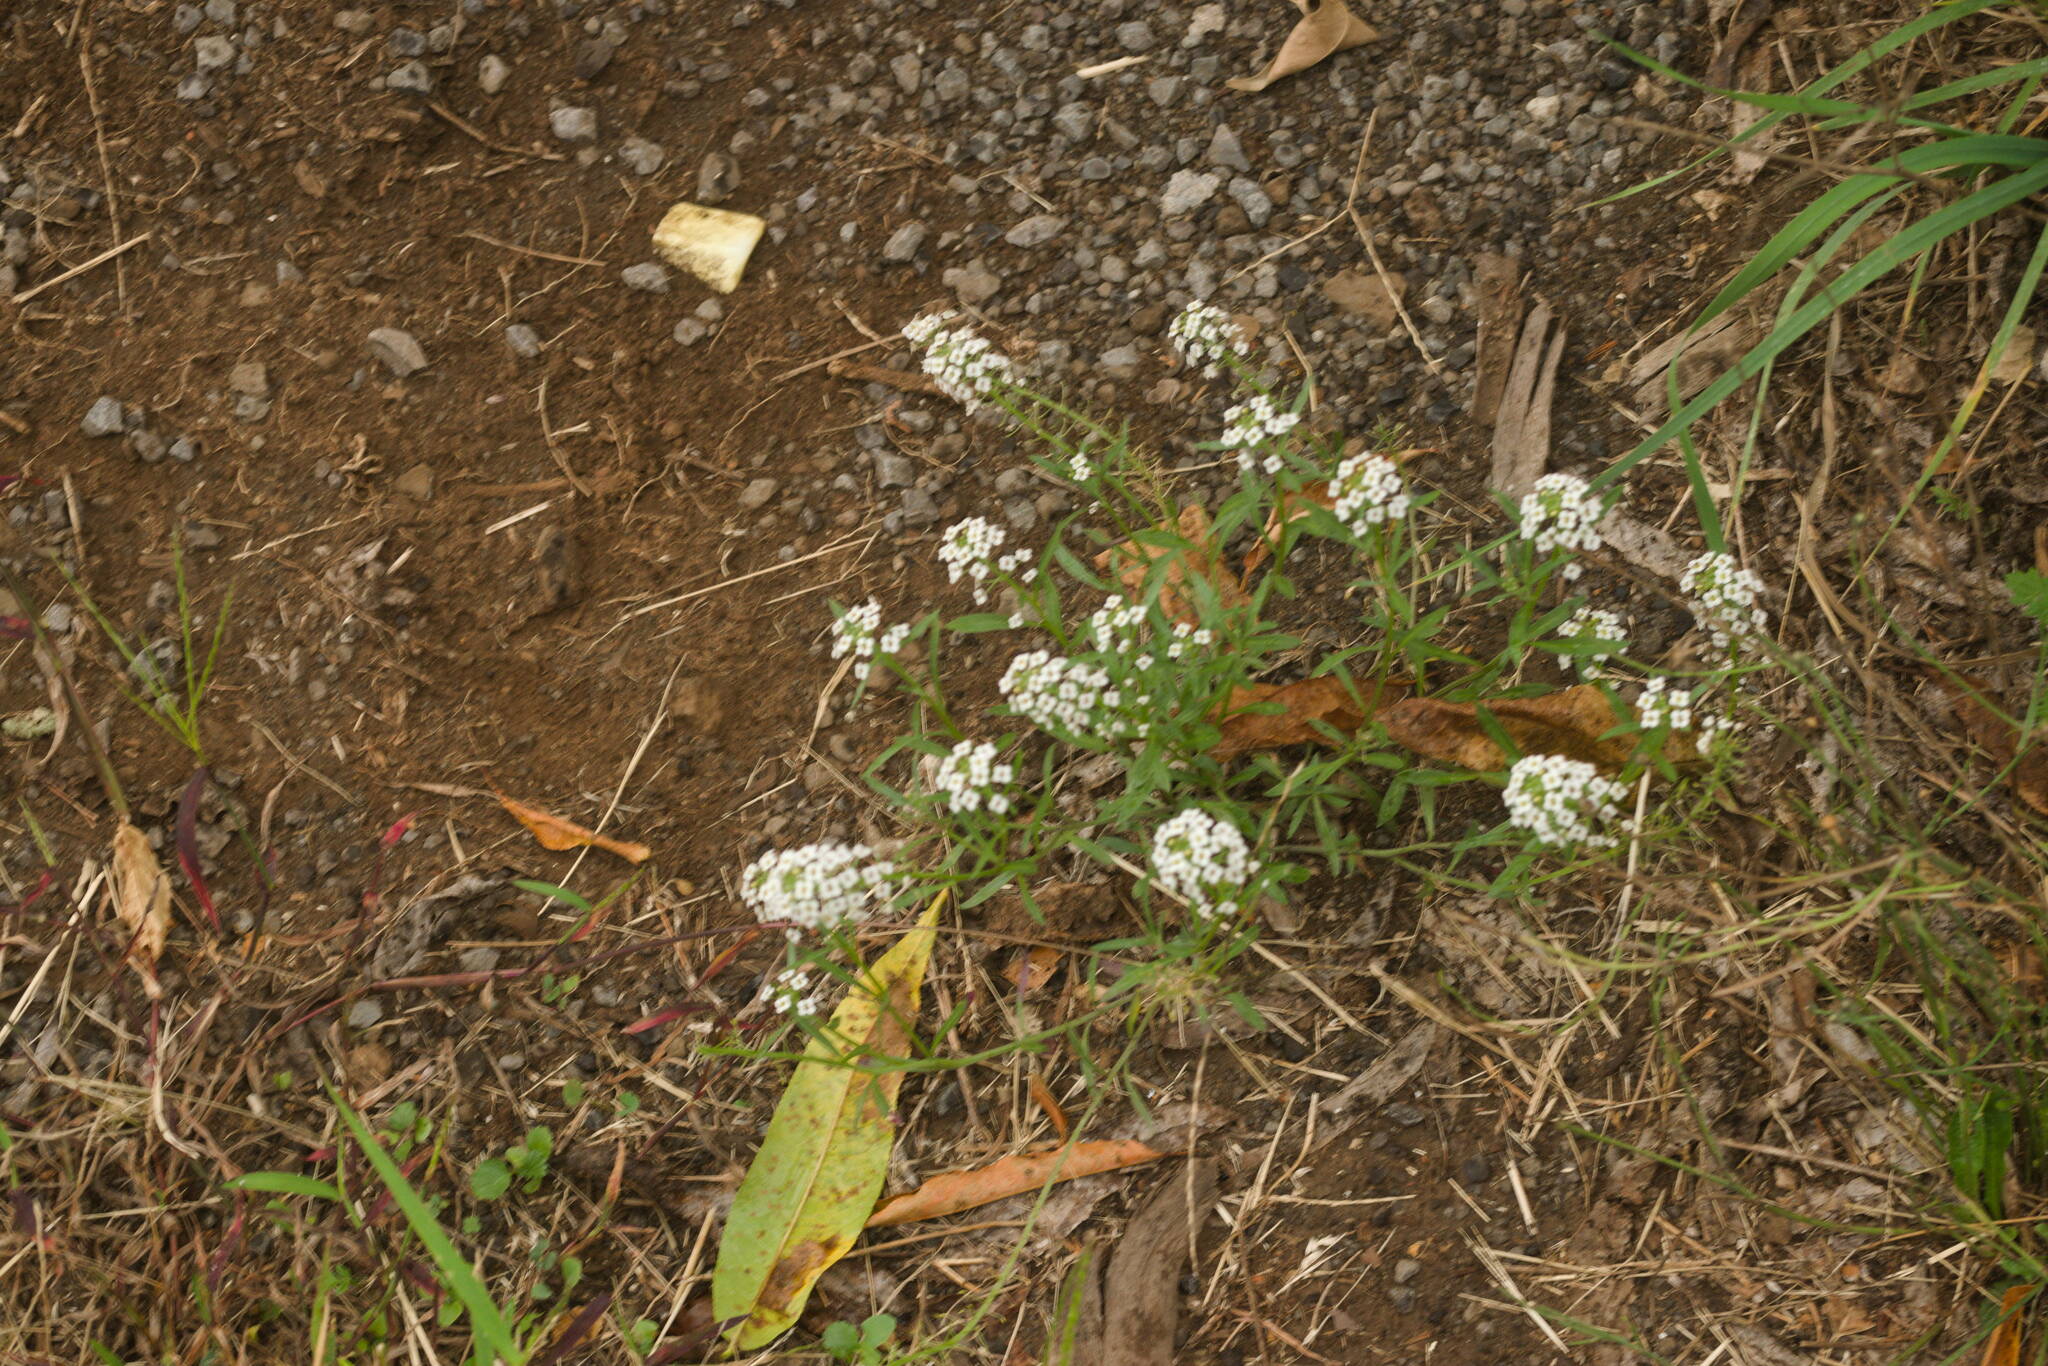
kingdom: Plantae
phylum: Tracheophyta
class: Magnoliopsida
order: Brassicales
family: Brassicaceae
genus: Lobularia
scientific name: Lobularia maritima
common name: Sweet alison
